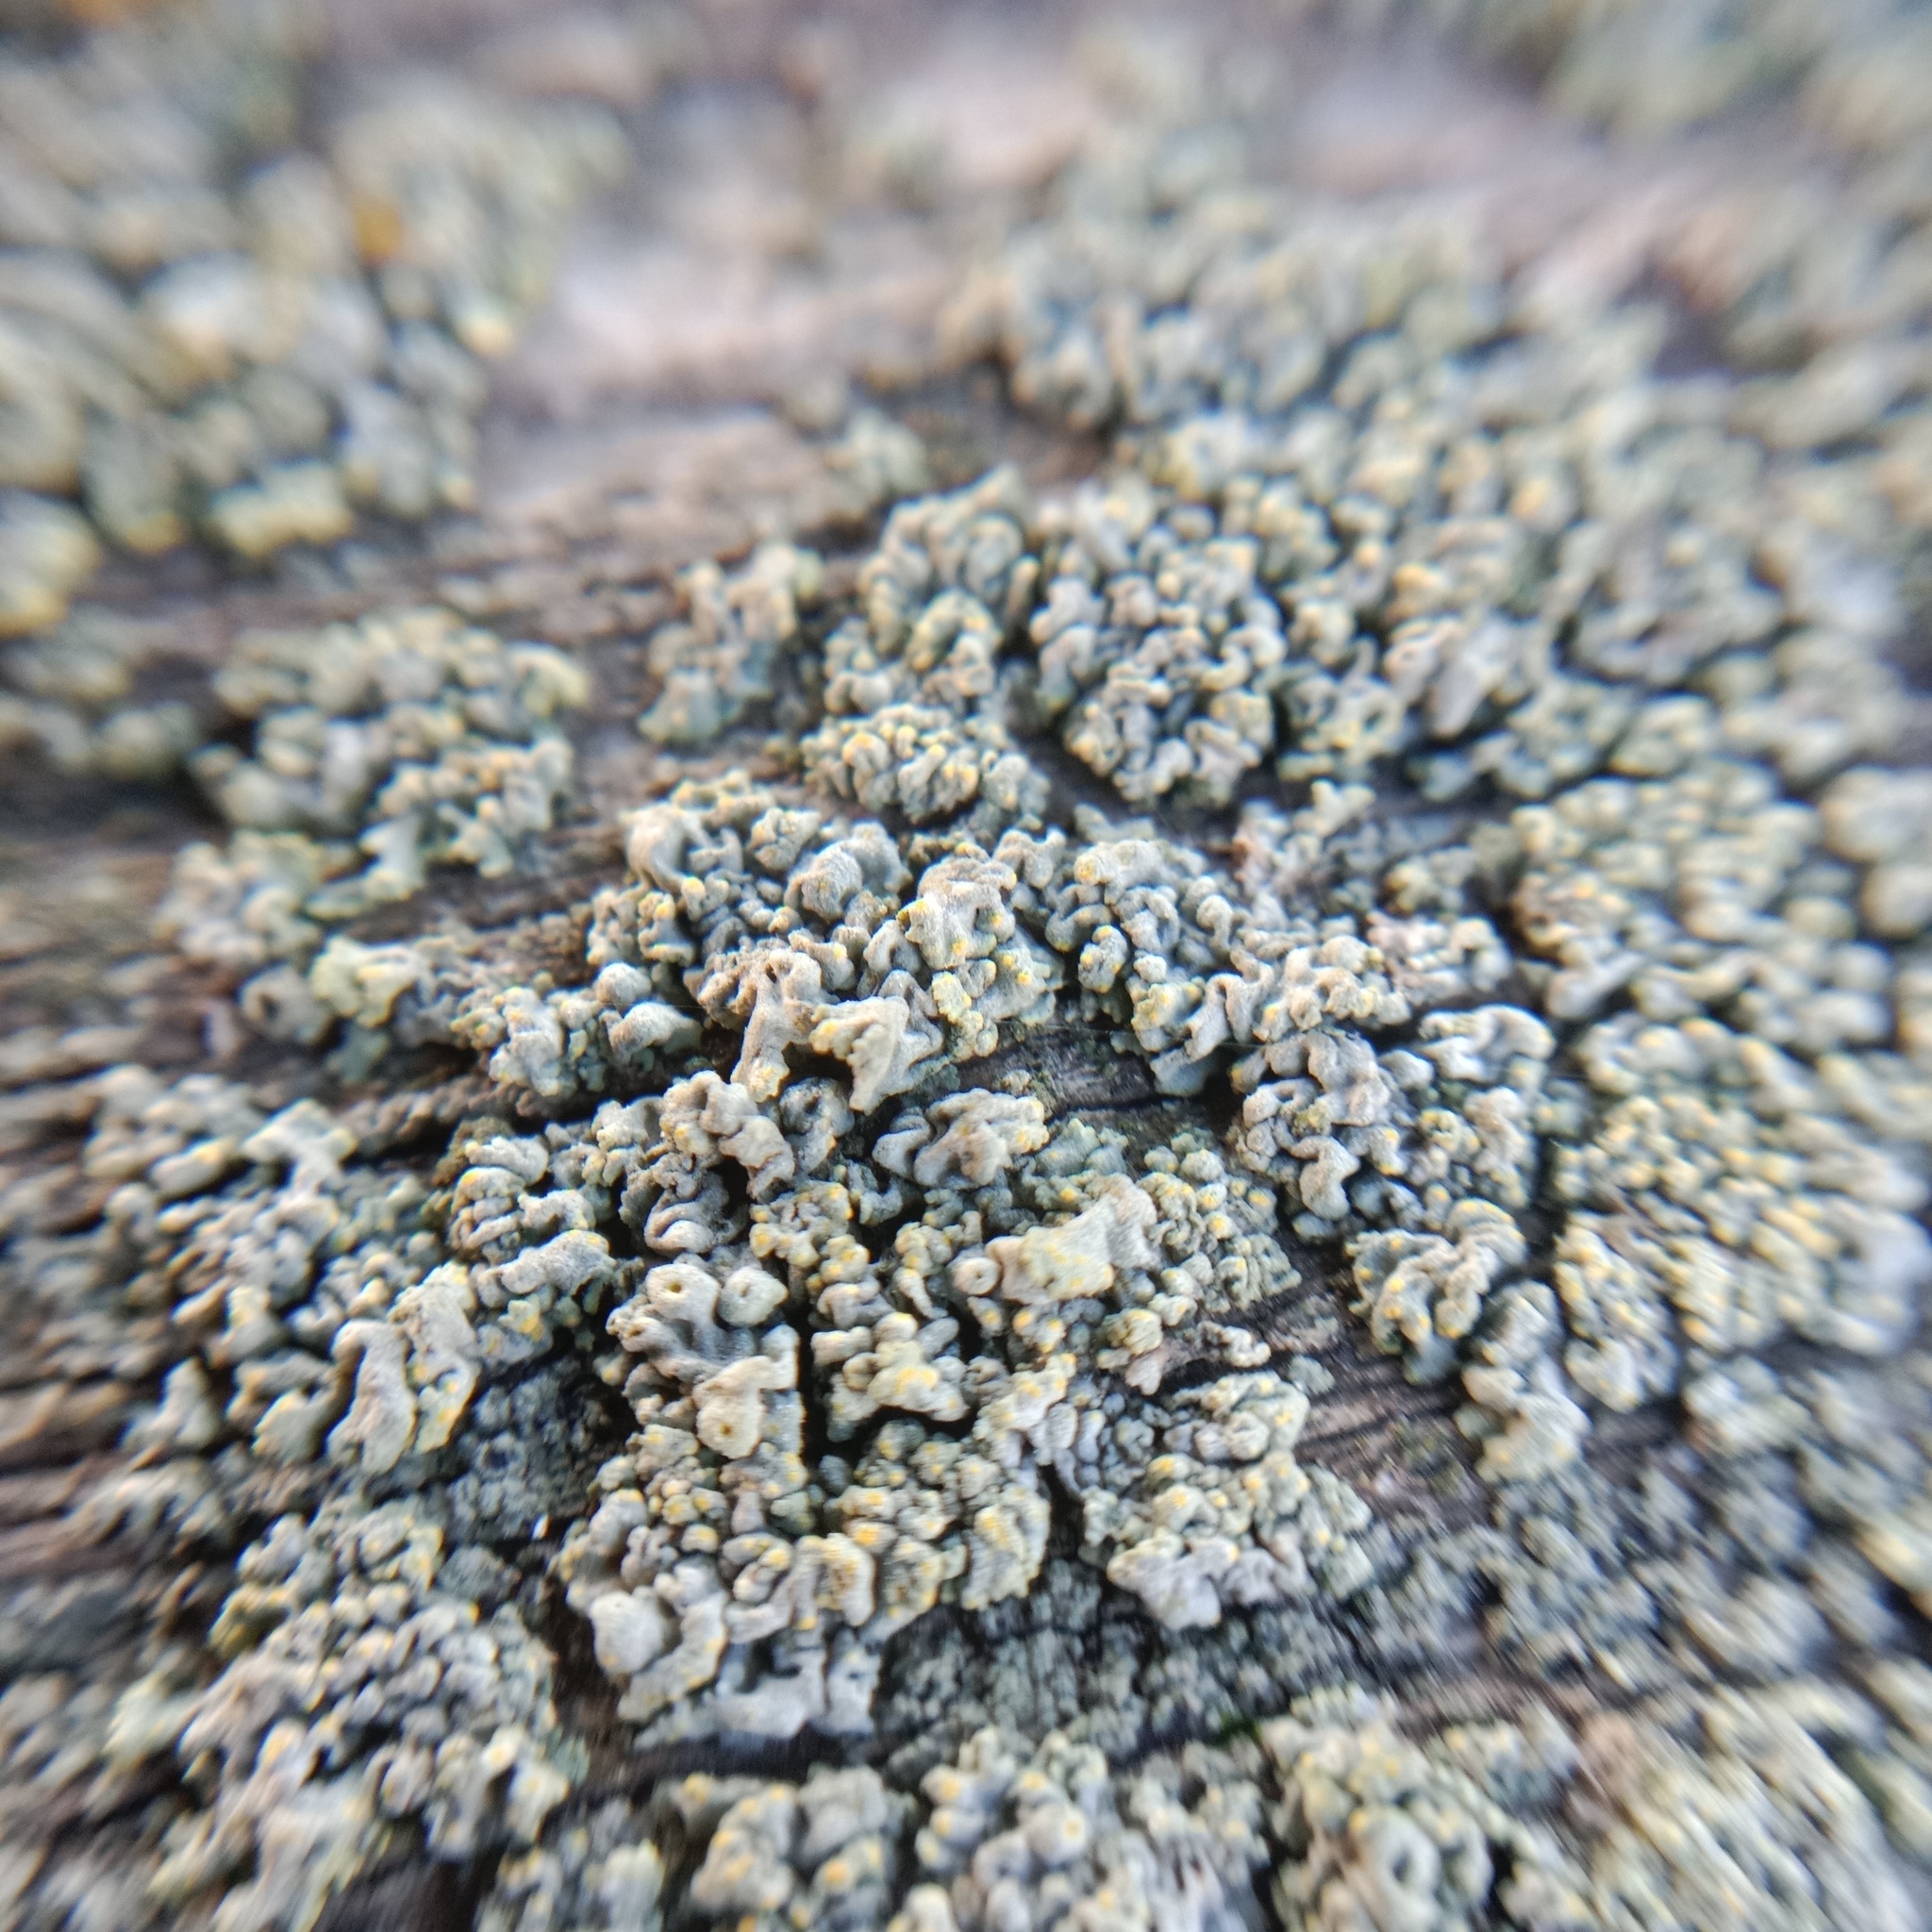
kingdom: Fungi
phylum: Ascomycota
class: Lecanoromycetes
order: Teloschistales
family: Teloschistaceae
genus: Polycauliona
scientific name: Polycauliona polycarpa
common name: Pin-cushion sunburst lichen
